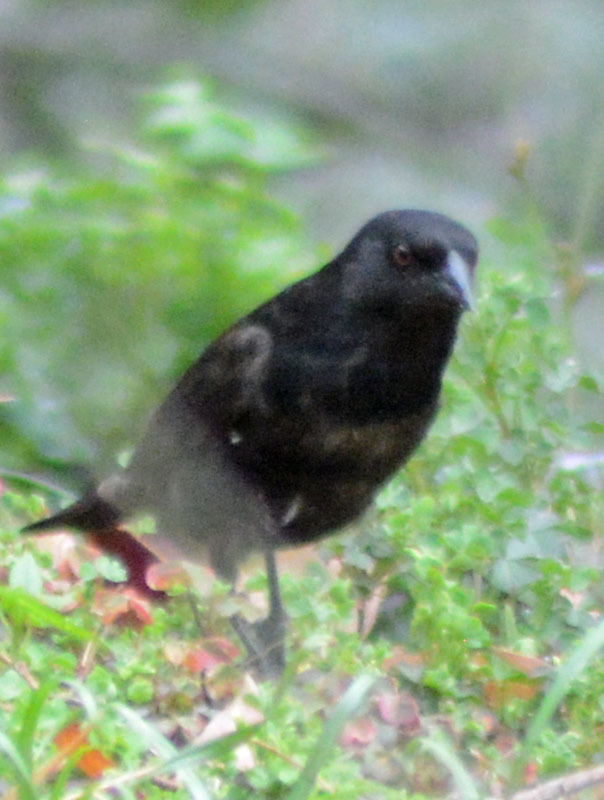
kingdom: Animalia
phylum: Chordata
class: Aves
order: Passeriformes
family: Icteridae
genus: Molothrus
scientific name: Molothrus aeneus
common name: Bronzed cowbird
